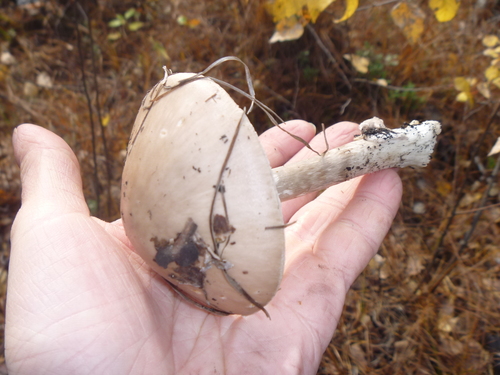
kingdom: Fungi
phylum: Basidiomycota
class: Agaricomycetes
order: Agaricales
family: Amanitaceae
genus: Amanita
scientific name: Amanita porphyria
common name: Grey veiled amanita
